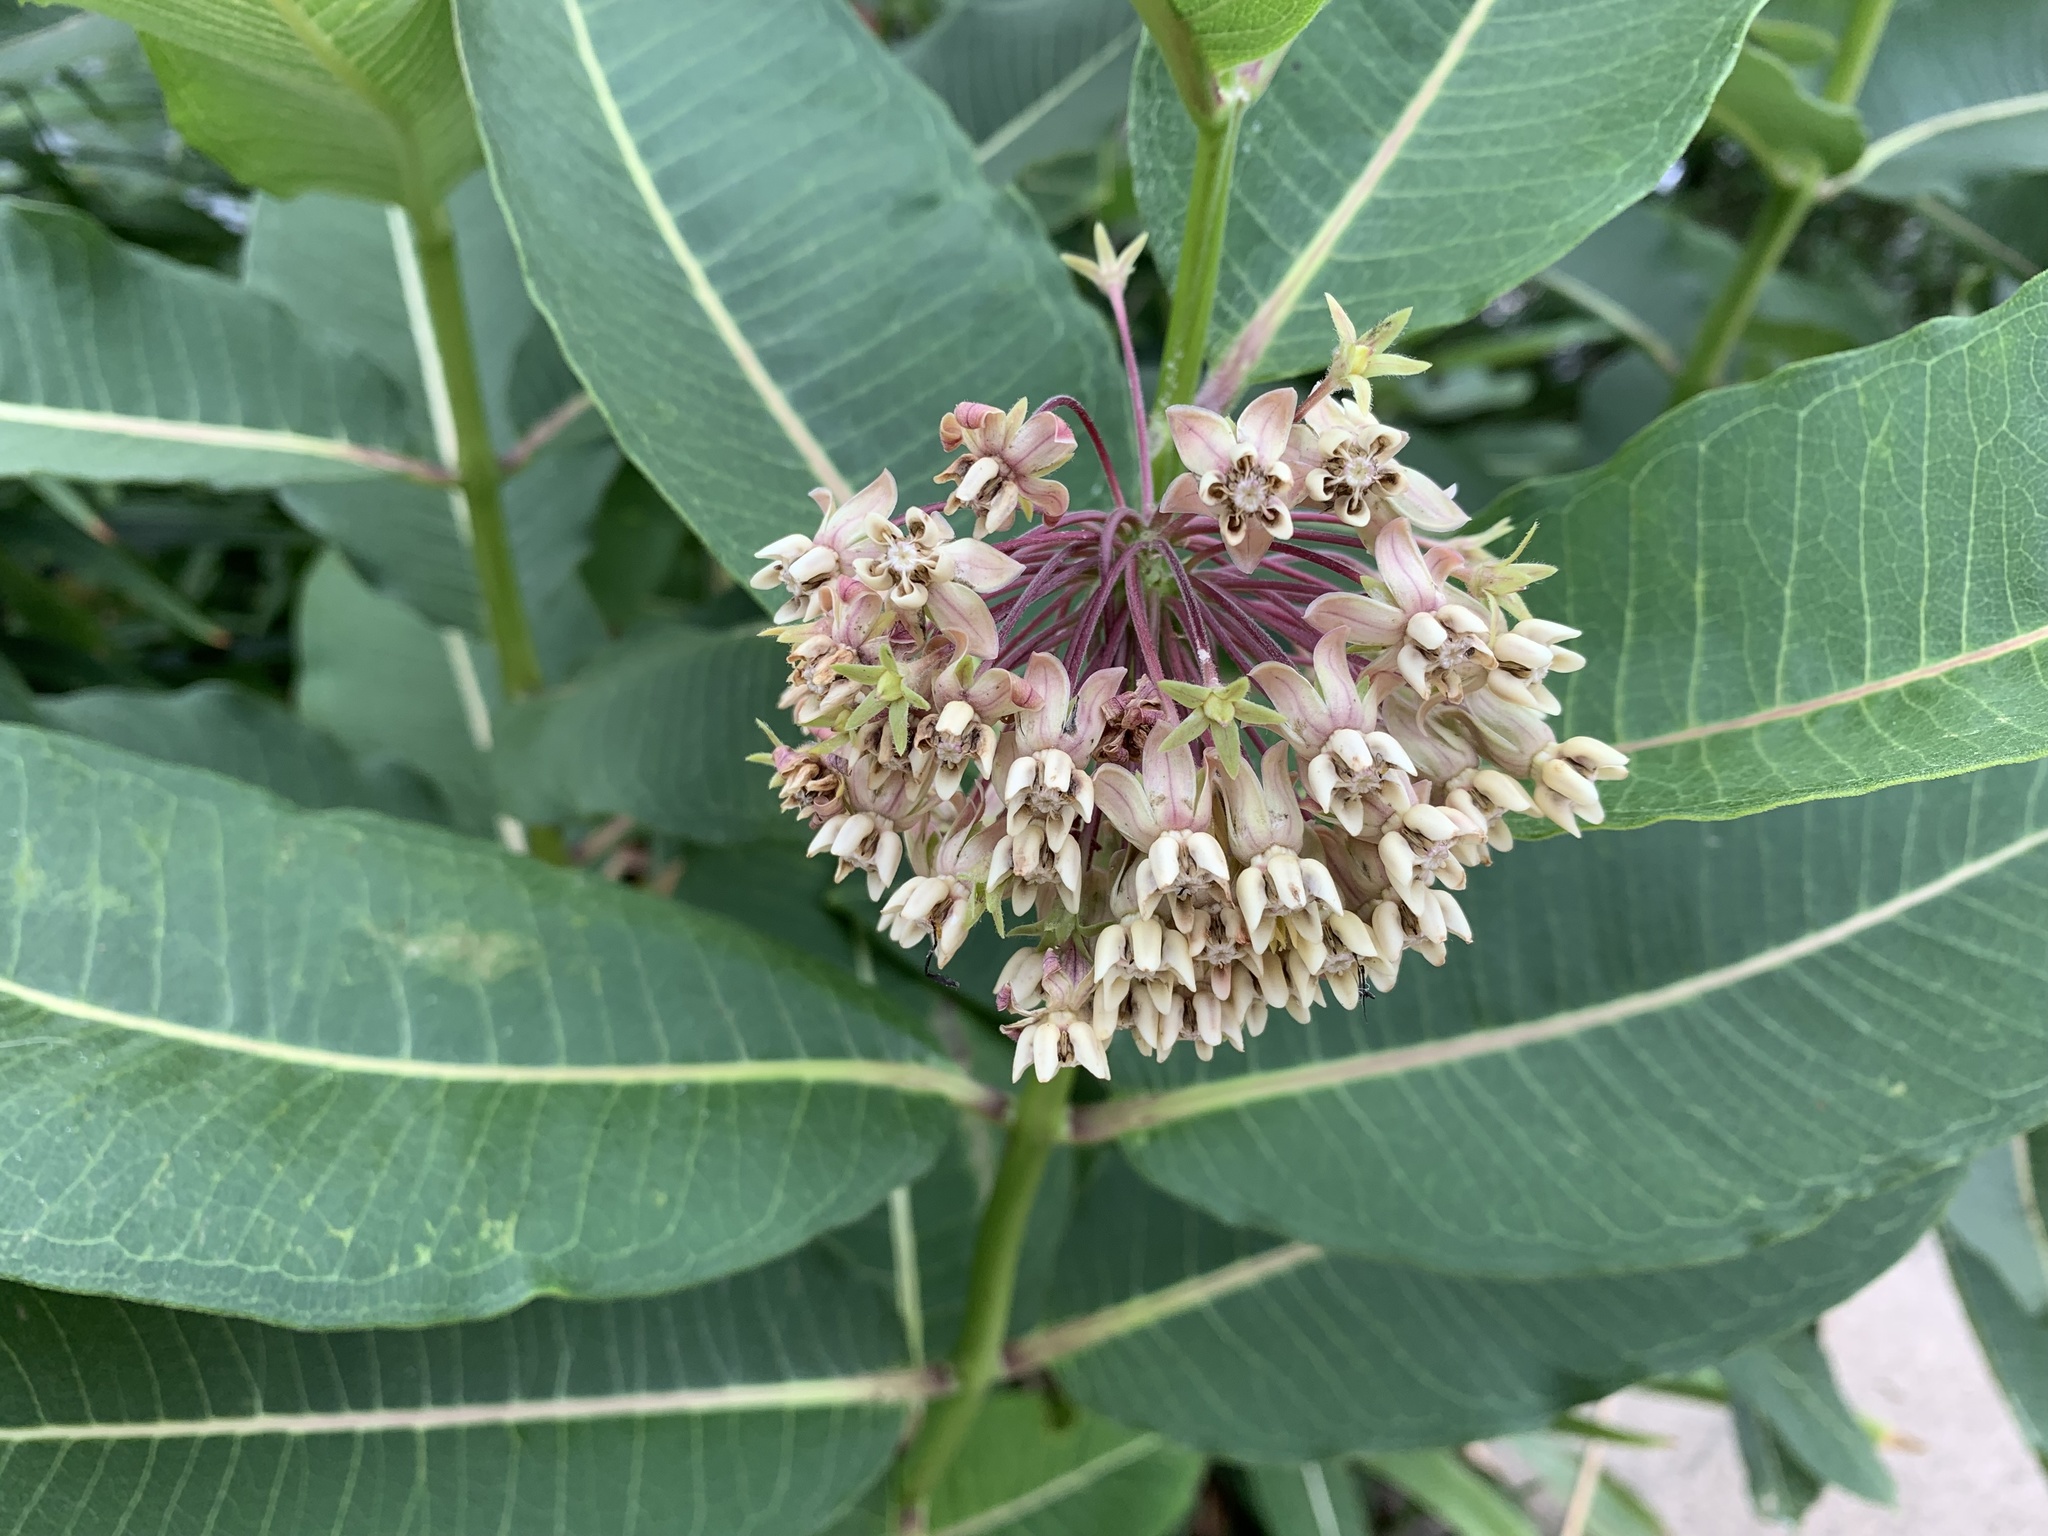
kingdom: Plantae
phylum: Tracheophyta
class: Magnoliopsida
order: Gentianales
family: Apocynaceae
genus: Asclepias
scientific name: Asclepias syriaca
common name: Common milkweed
